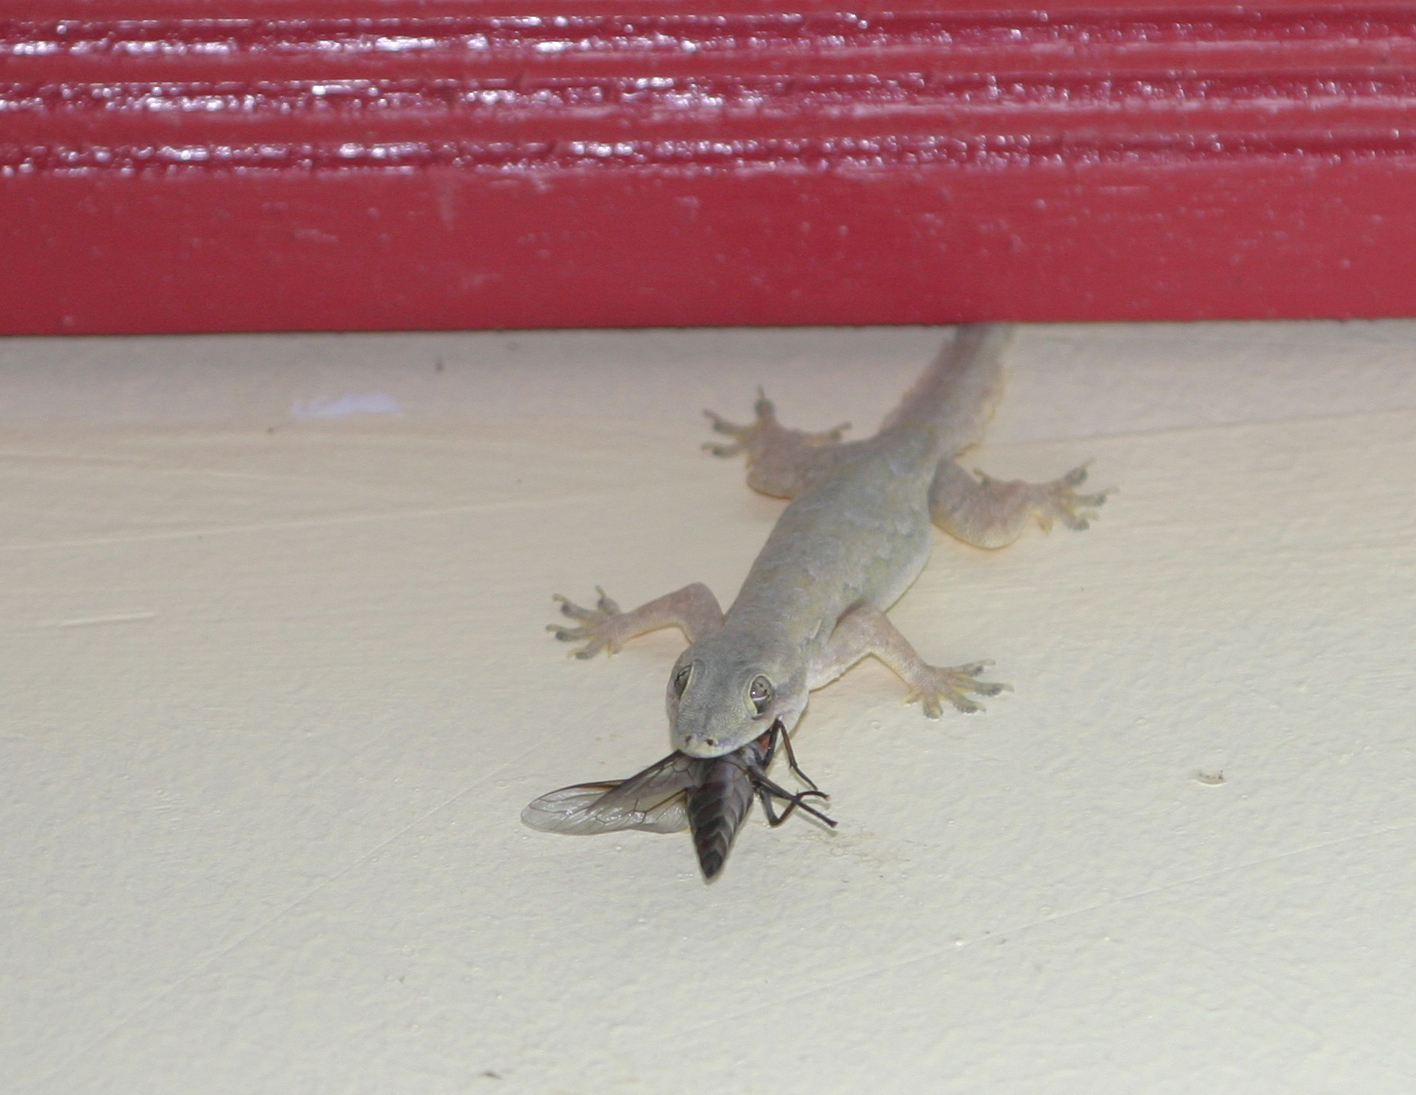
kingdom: Animalia
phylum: Chordata
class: Squamata
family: Gekkonidae
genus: Hemidactylus
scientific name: Hemidactylus platyurus
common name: Flat-tailed house gecko
